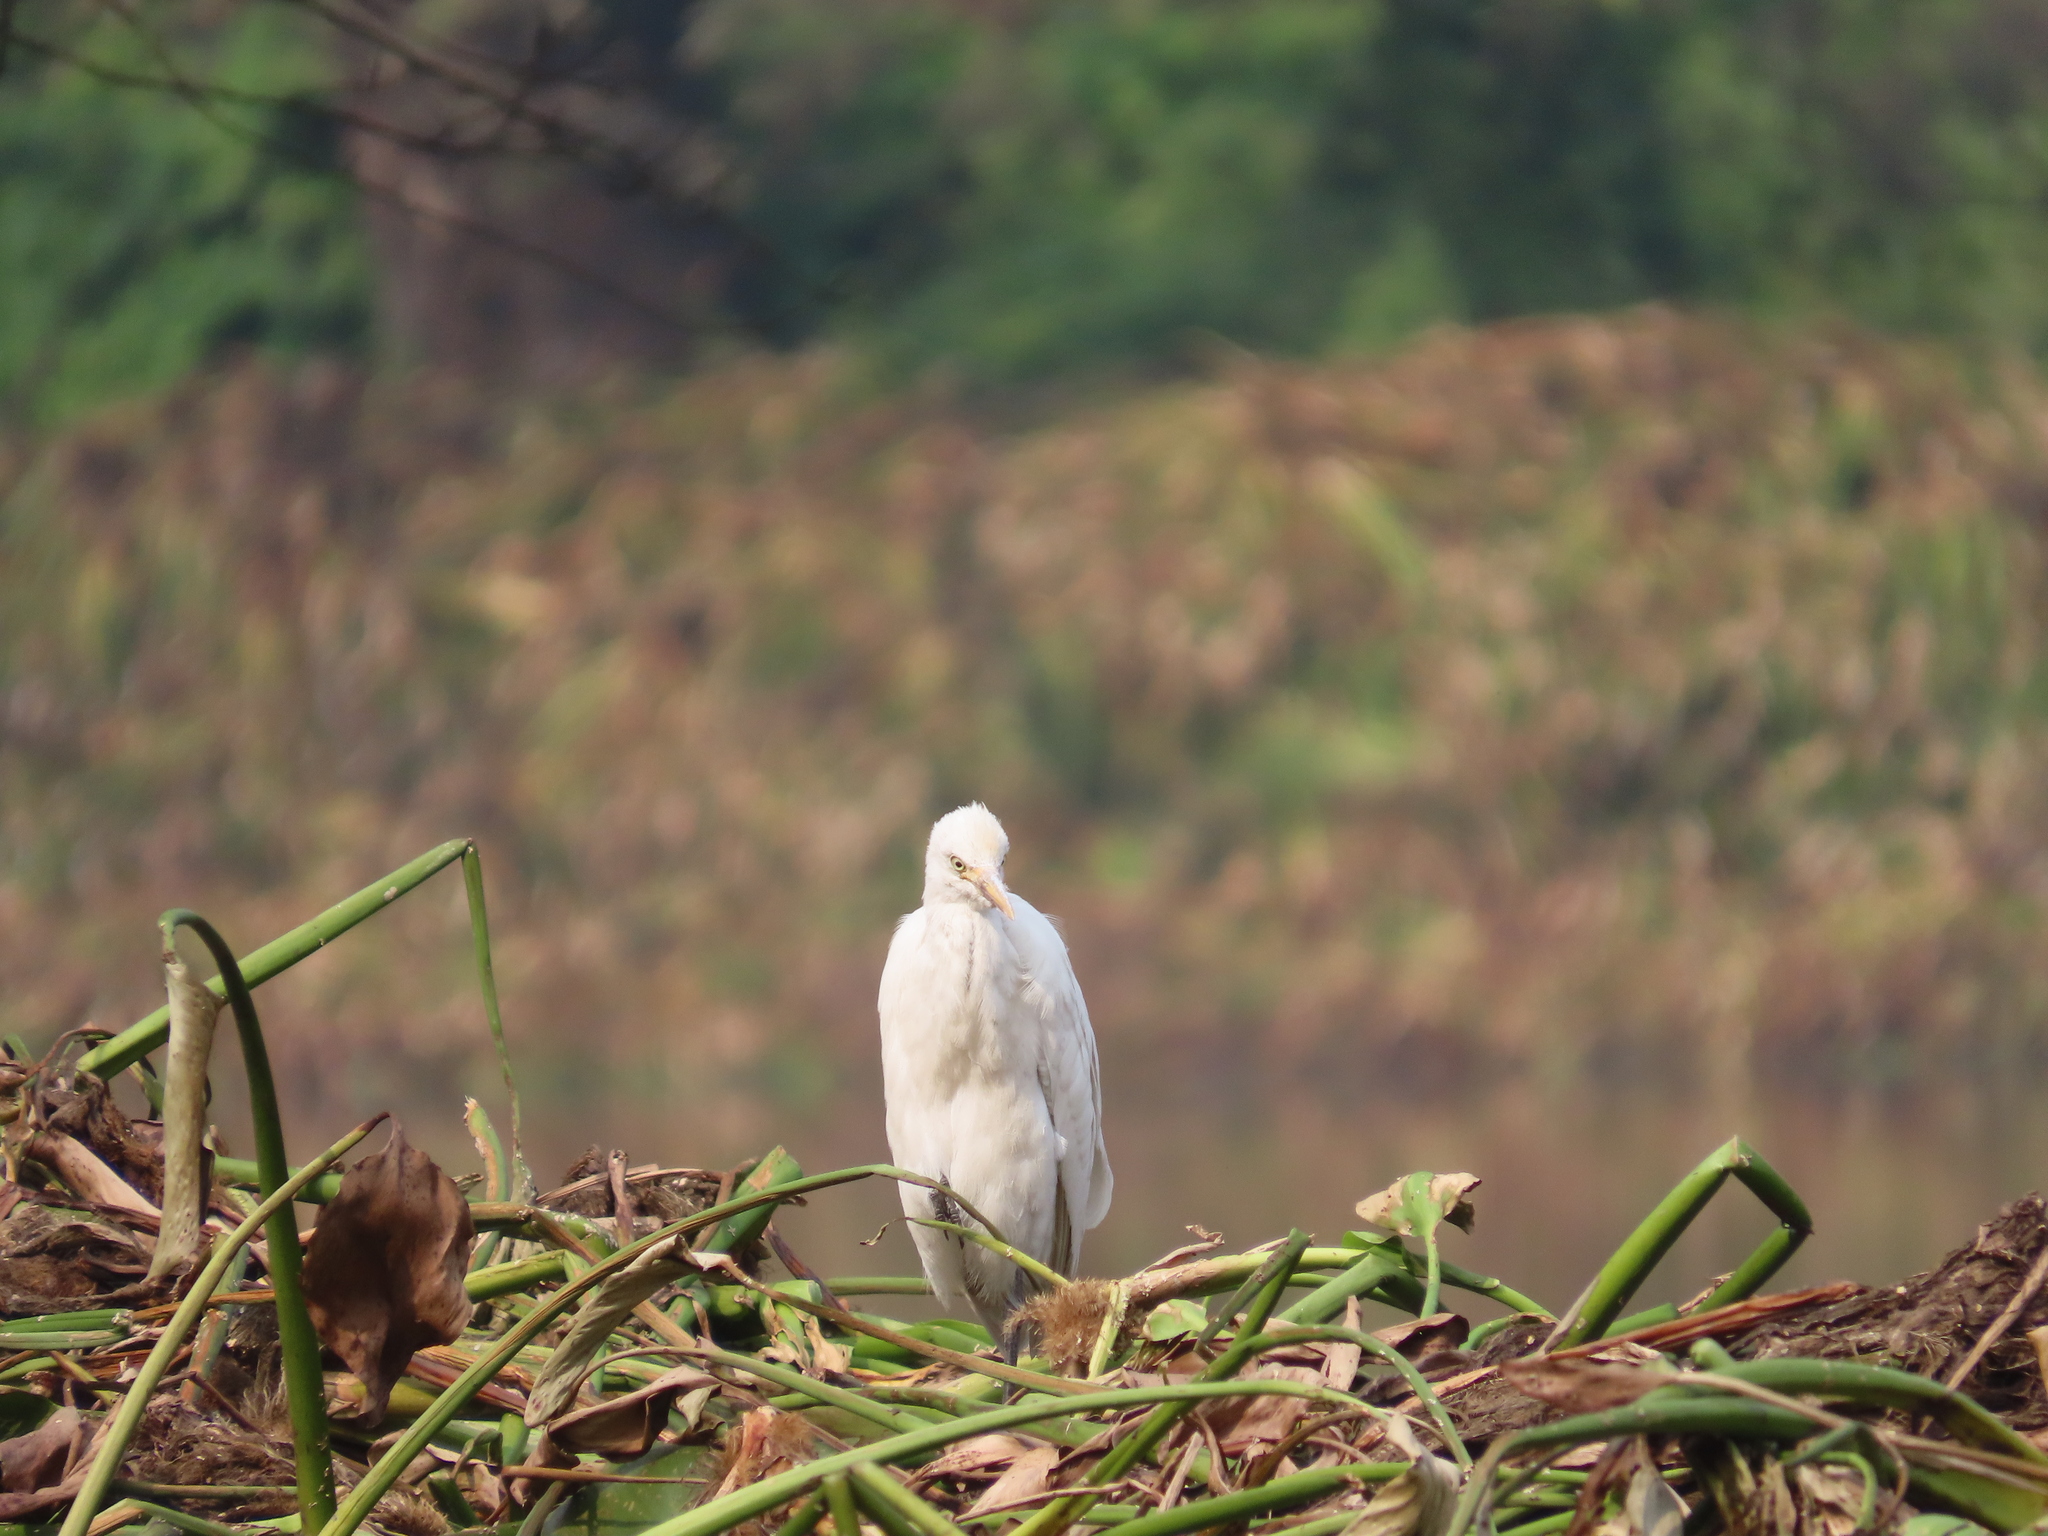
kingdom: Animalia
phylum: Chordata
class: Aves
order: Pelecaniformes
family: Ardeidae
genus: Bubulcus
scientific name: Bubulcus coromandus
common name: Eastern cattle egret
